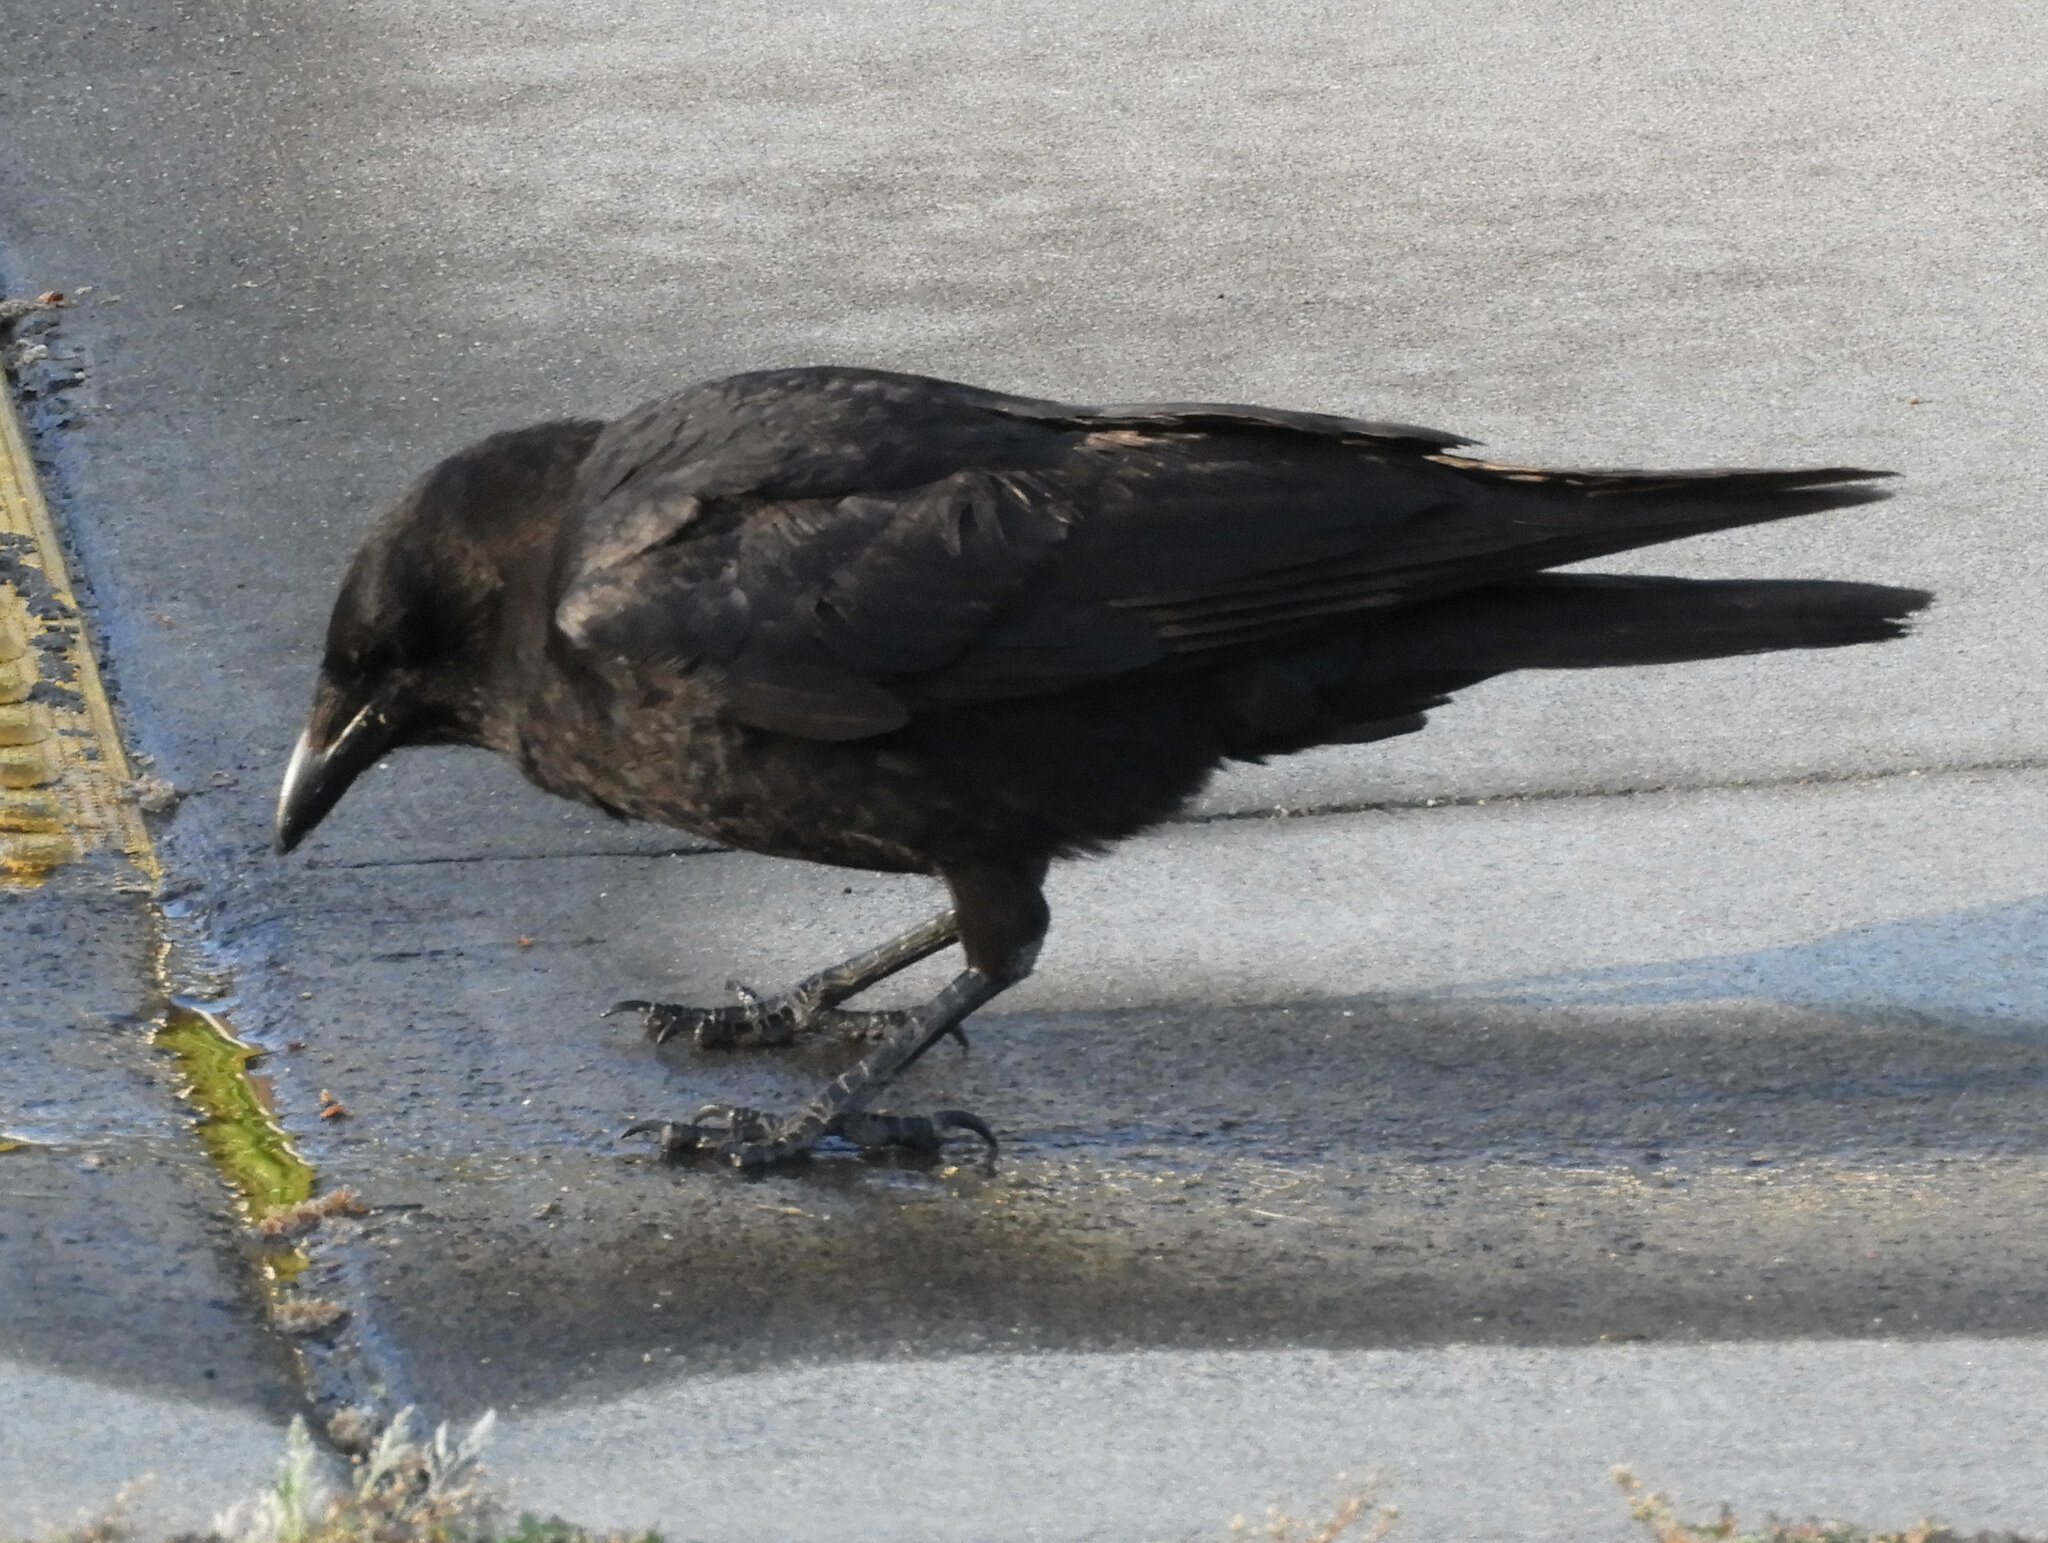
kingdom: Animalia
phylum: Chordata
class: Aves
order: Passeriformes
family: Corvidae
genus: Corvus
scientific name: Corvus brachyrhynchos
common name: American crow
